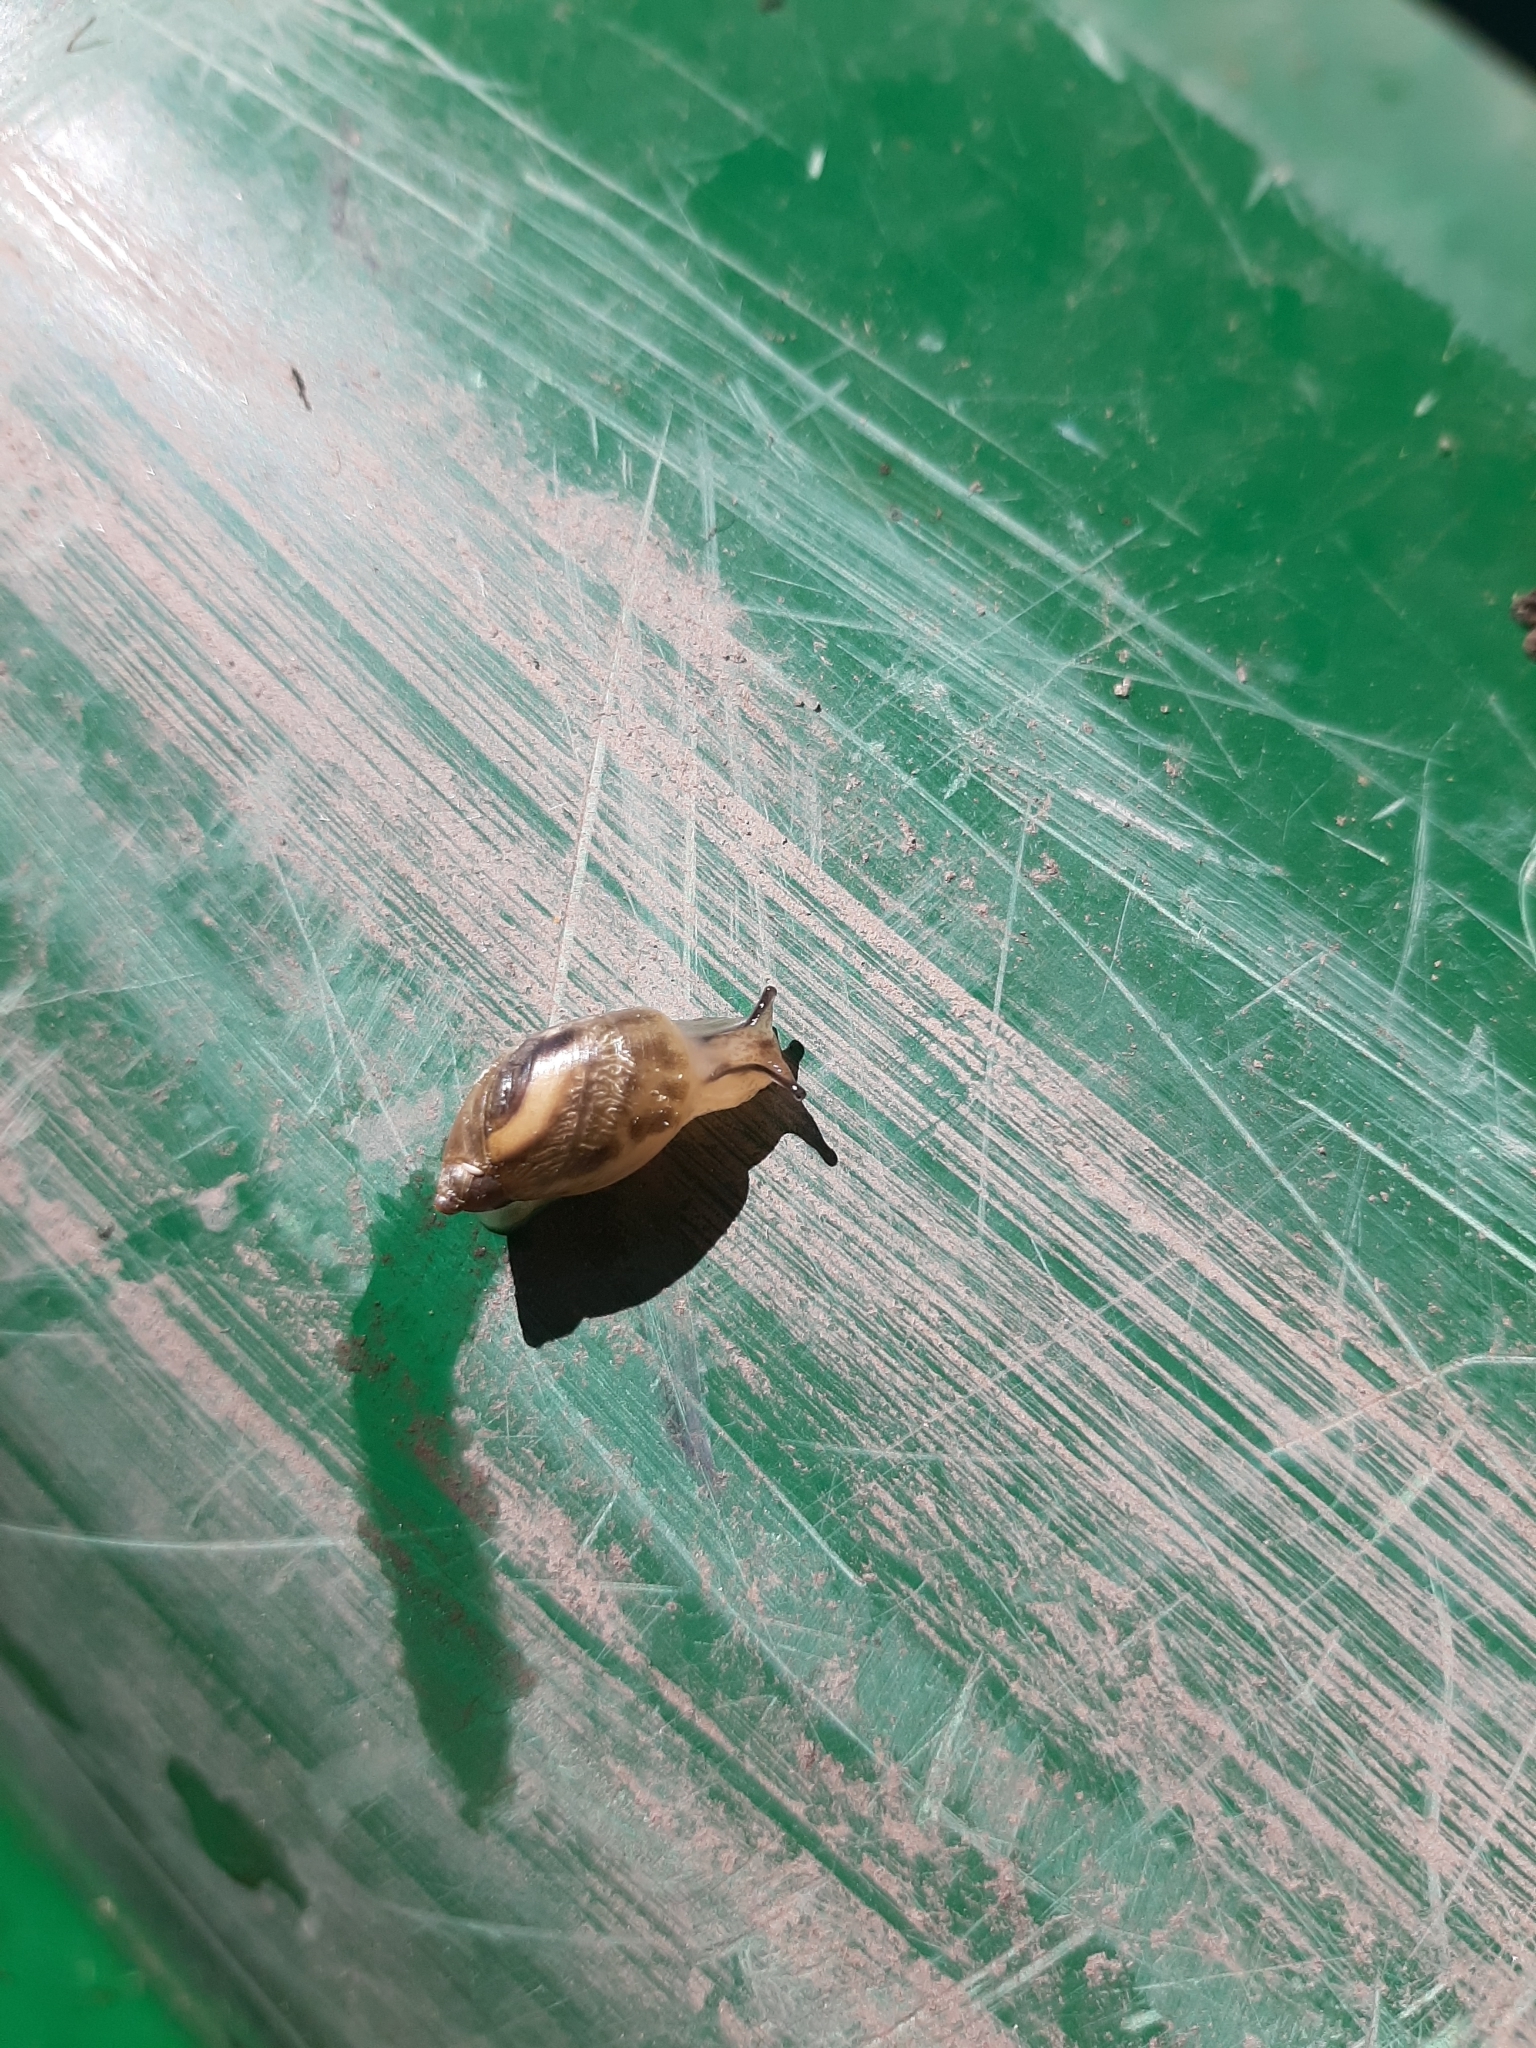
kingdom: Animalia
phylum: Mollusca
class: Gastropoda
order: Stylommatophora
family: Succineidae
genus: Succinea
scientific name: Succinea putris
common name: European ambersnail
